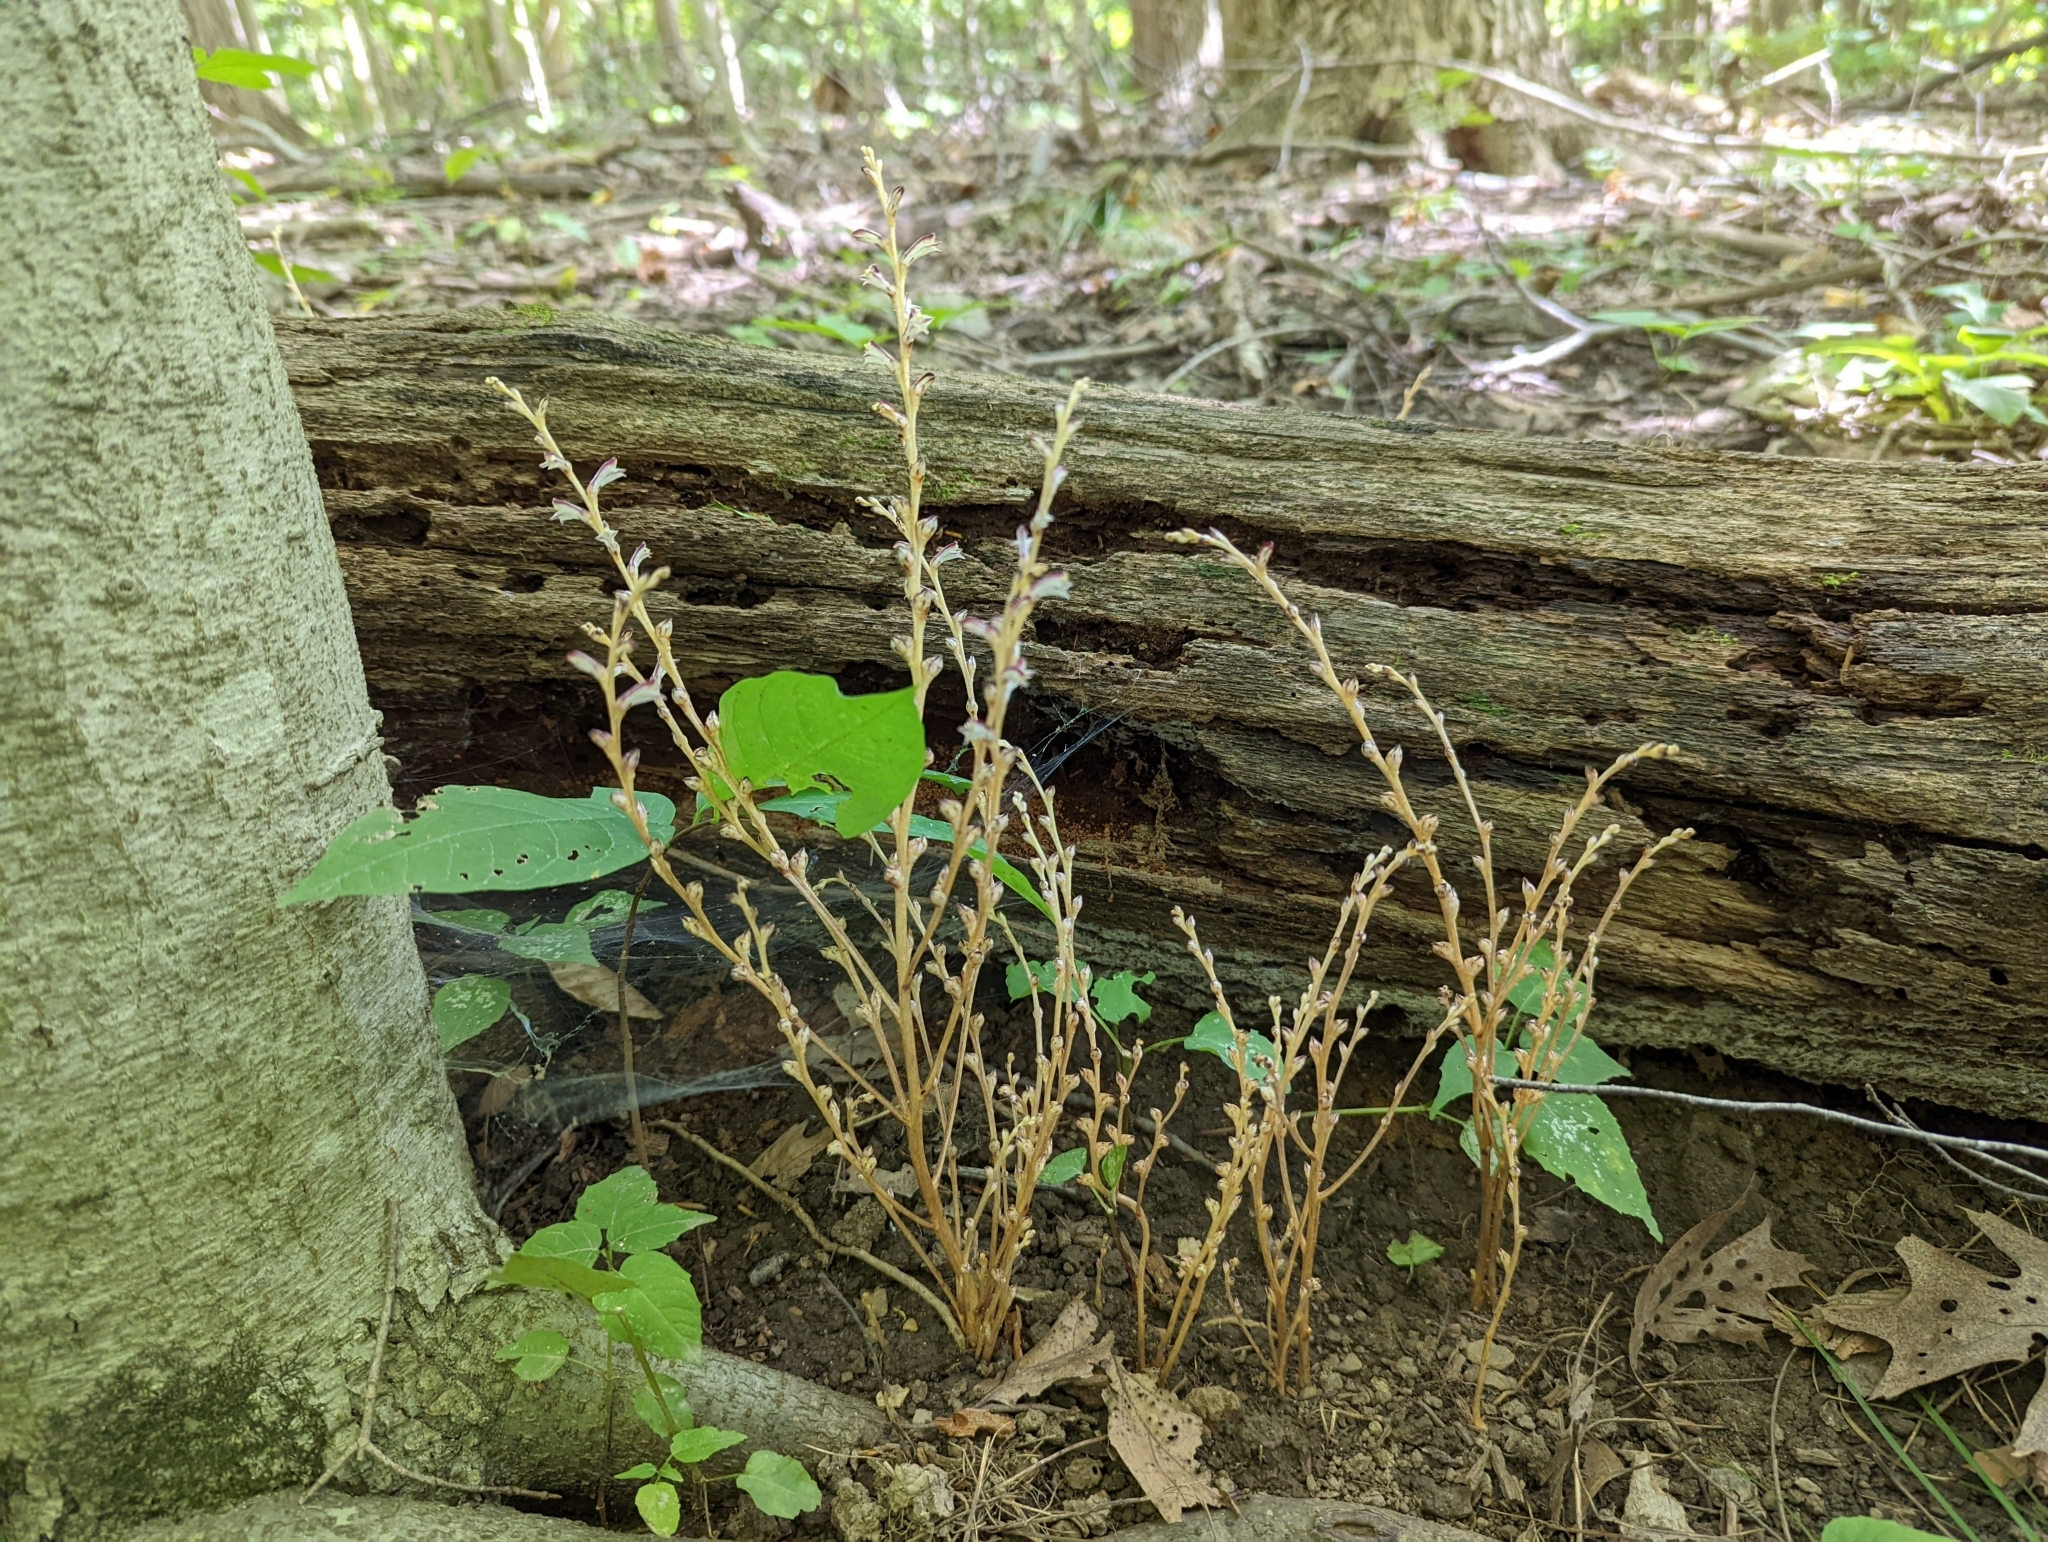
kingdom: Plantae
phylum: Tracheophyta
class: Magnoliopsida
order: Lamiales
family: Orobanchaceae
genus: Epifagus
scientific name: Epifagus virginiana
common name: Beechdrops
